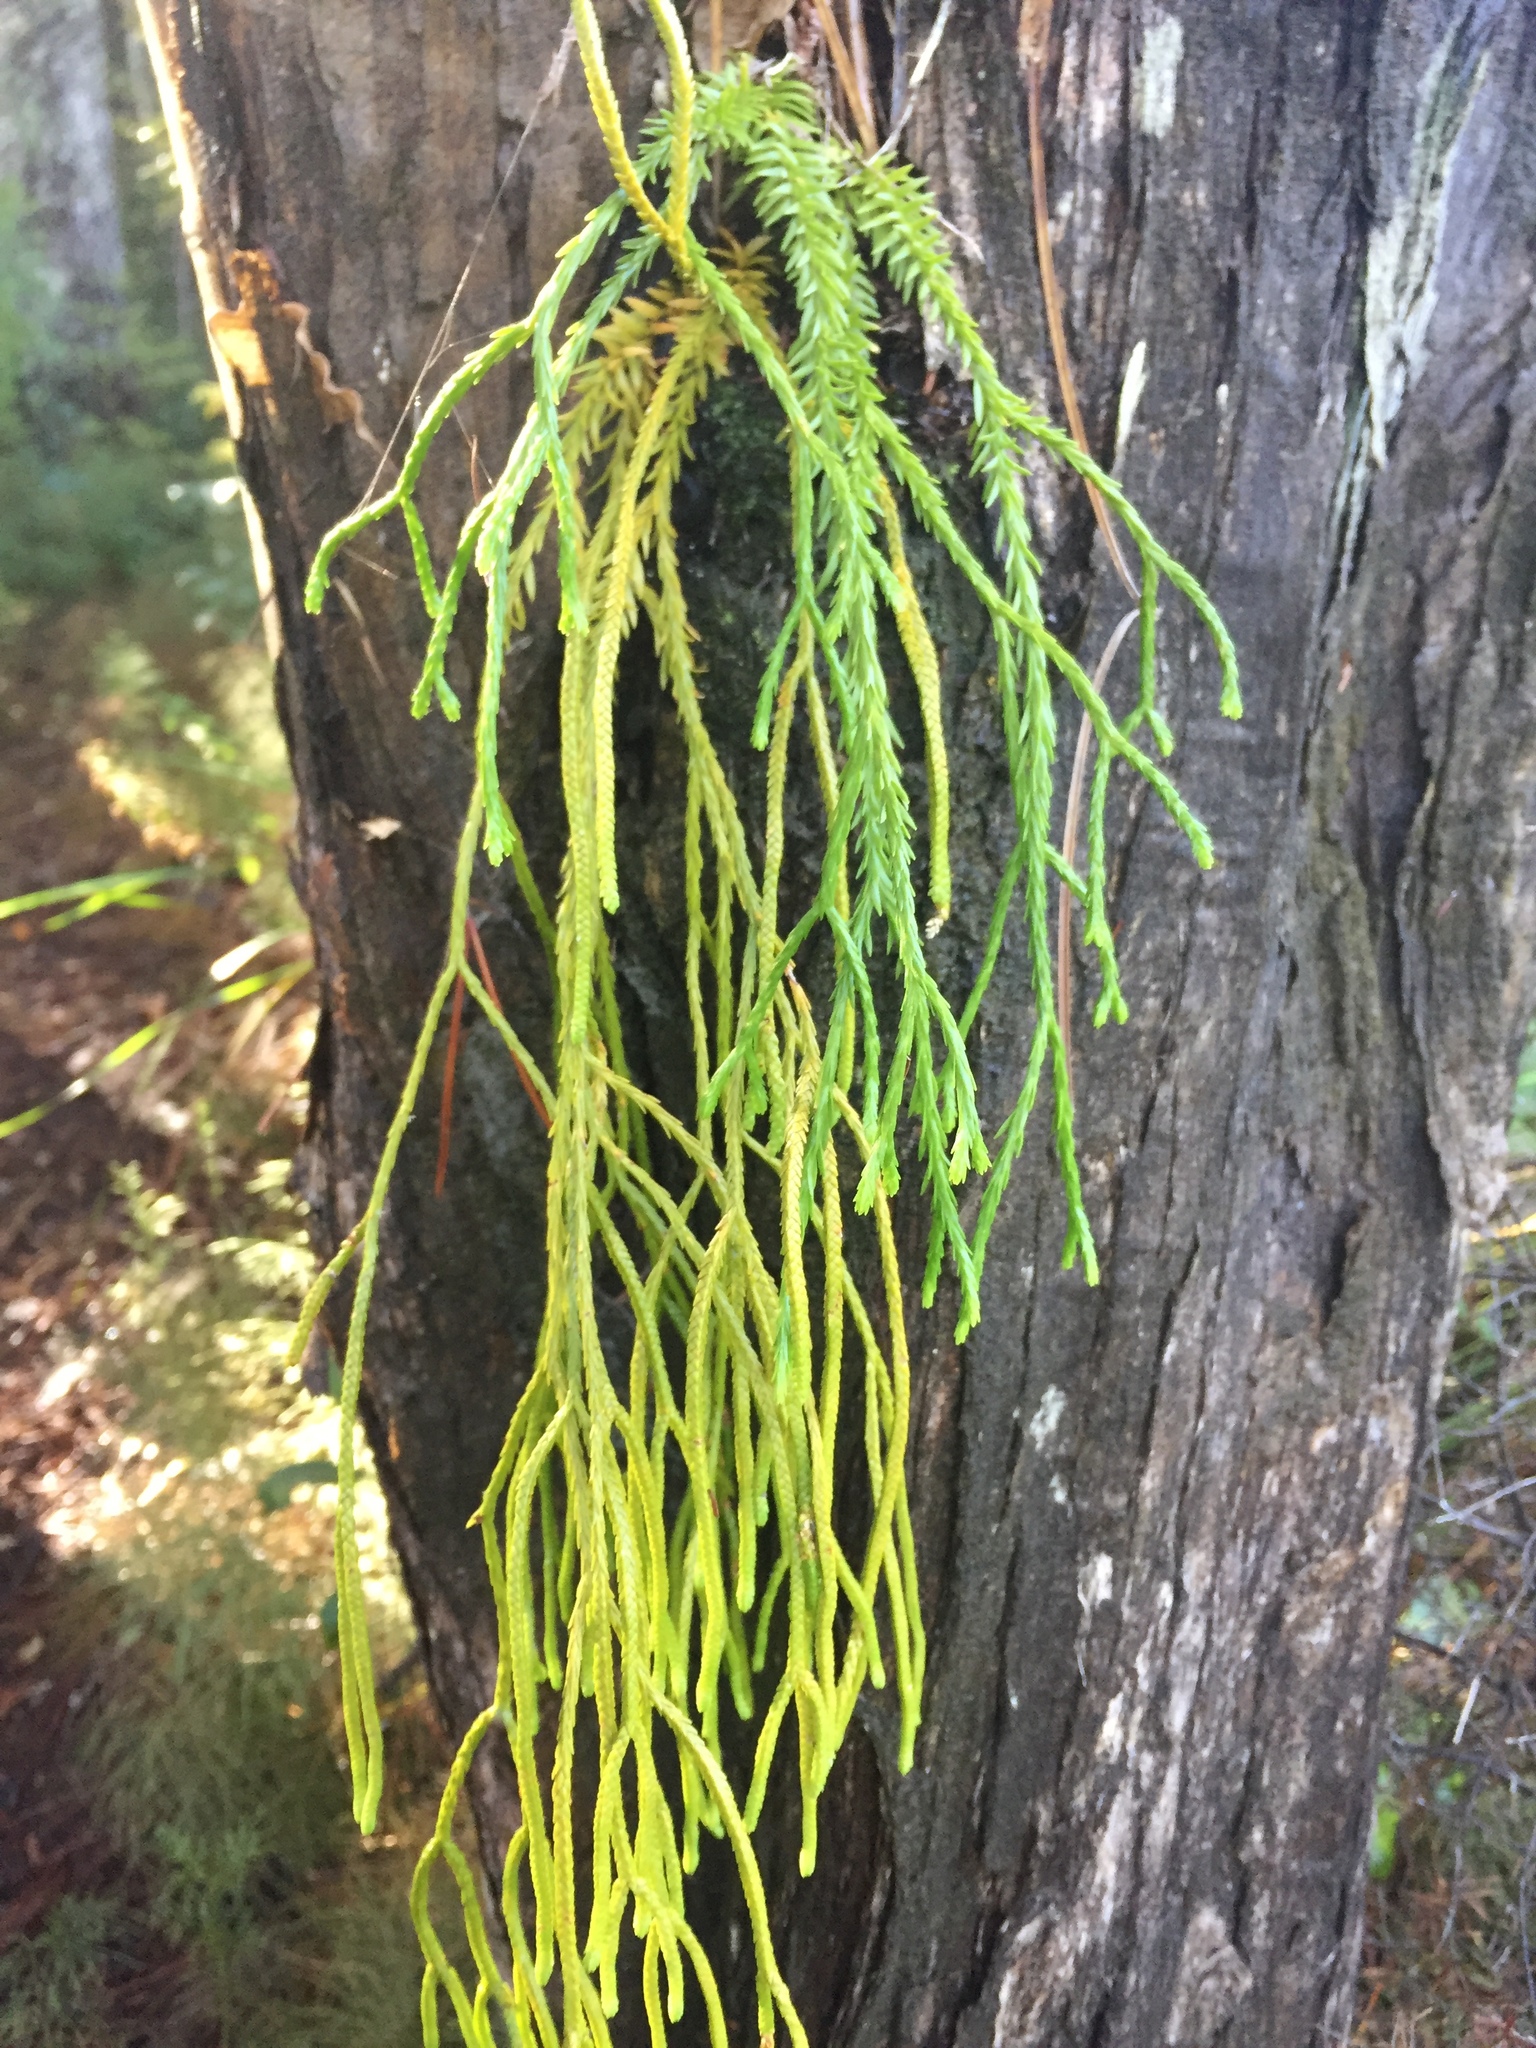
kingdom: Plantae
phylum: Tracheophyta
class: Lycopodiopsida
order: Lycopodiales
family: Lycopodiaceae
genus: Phlegmariurus
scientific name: Phlegmariurus varius
